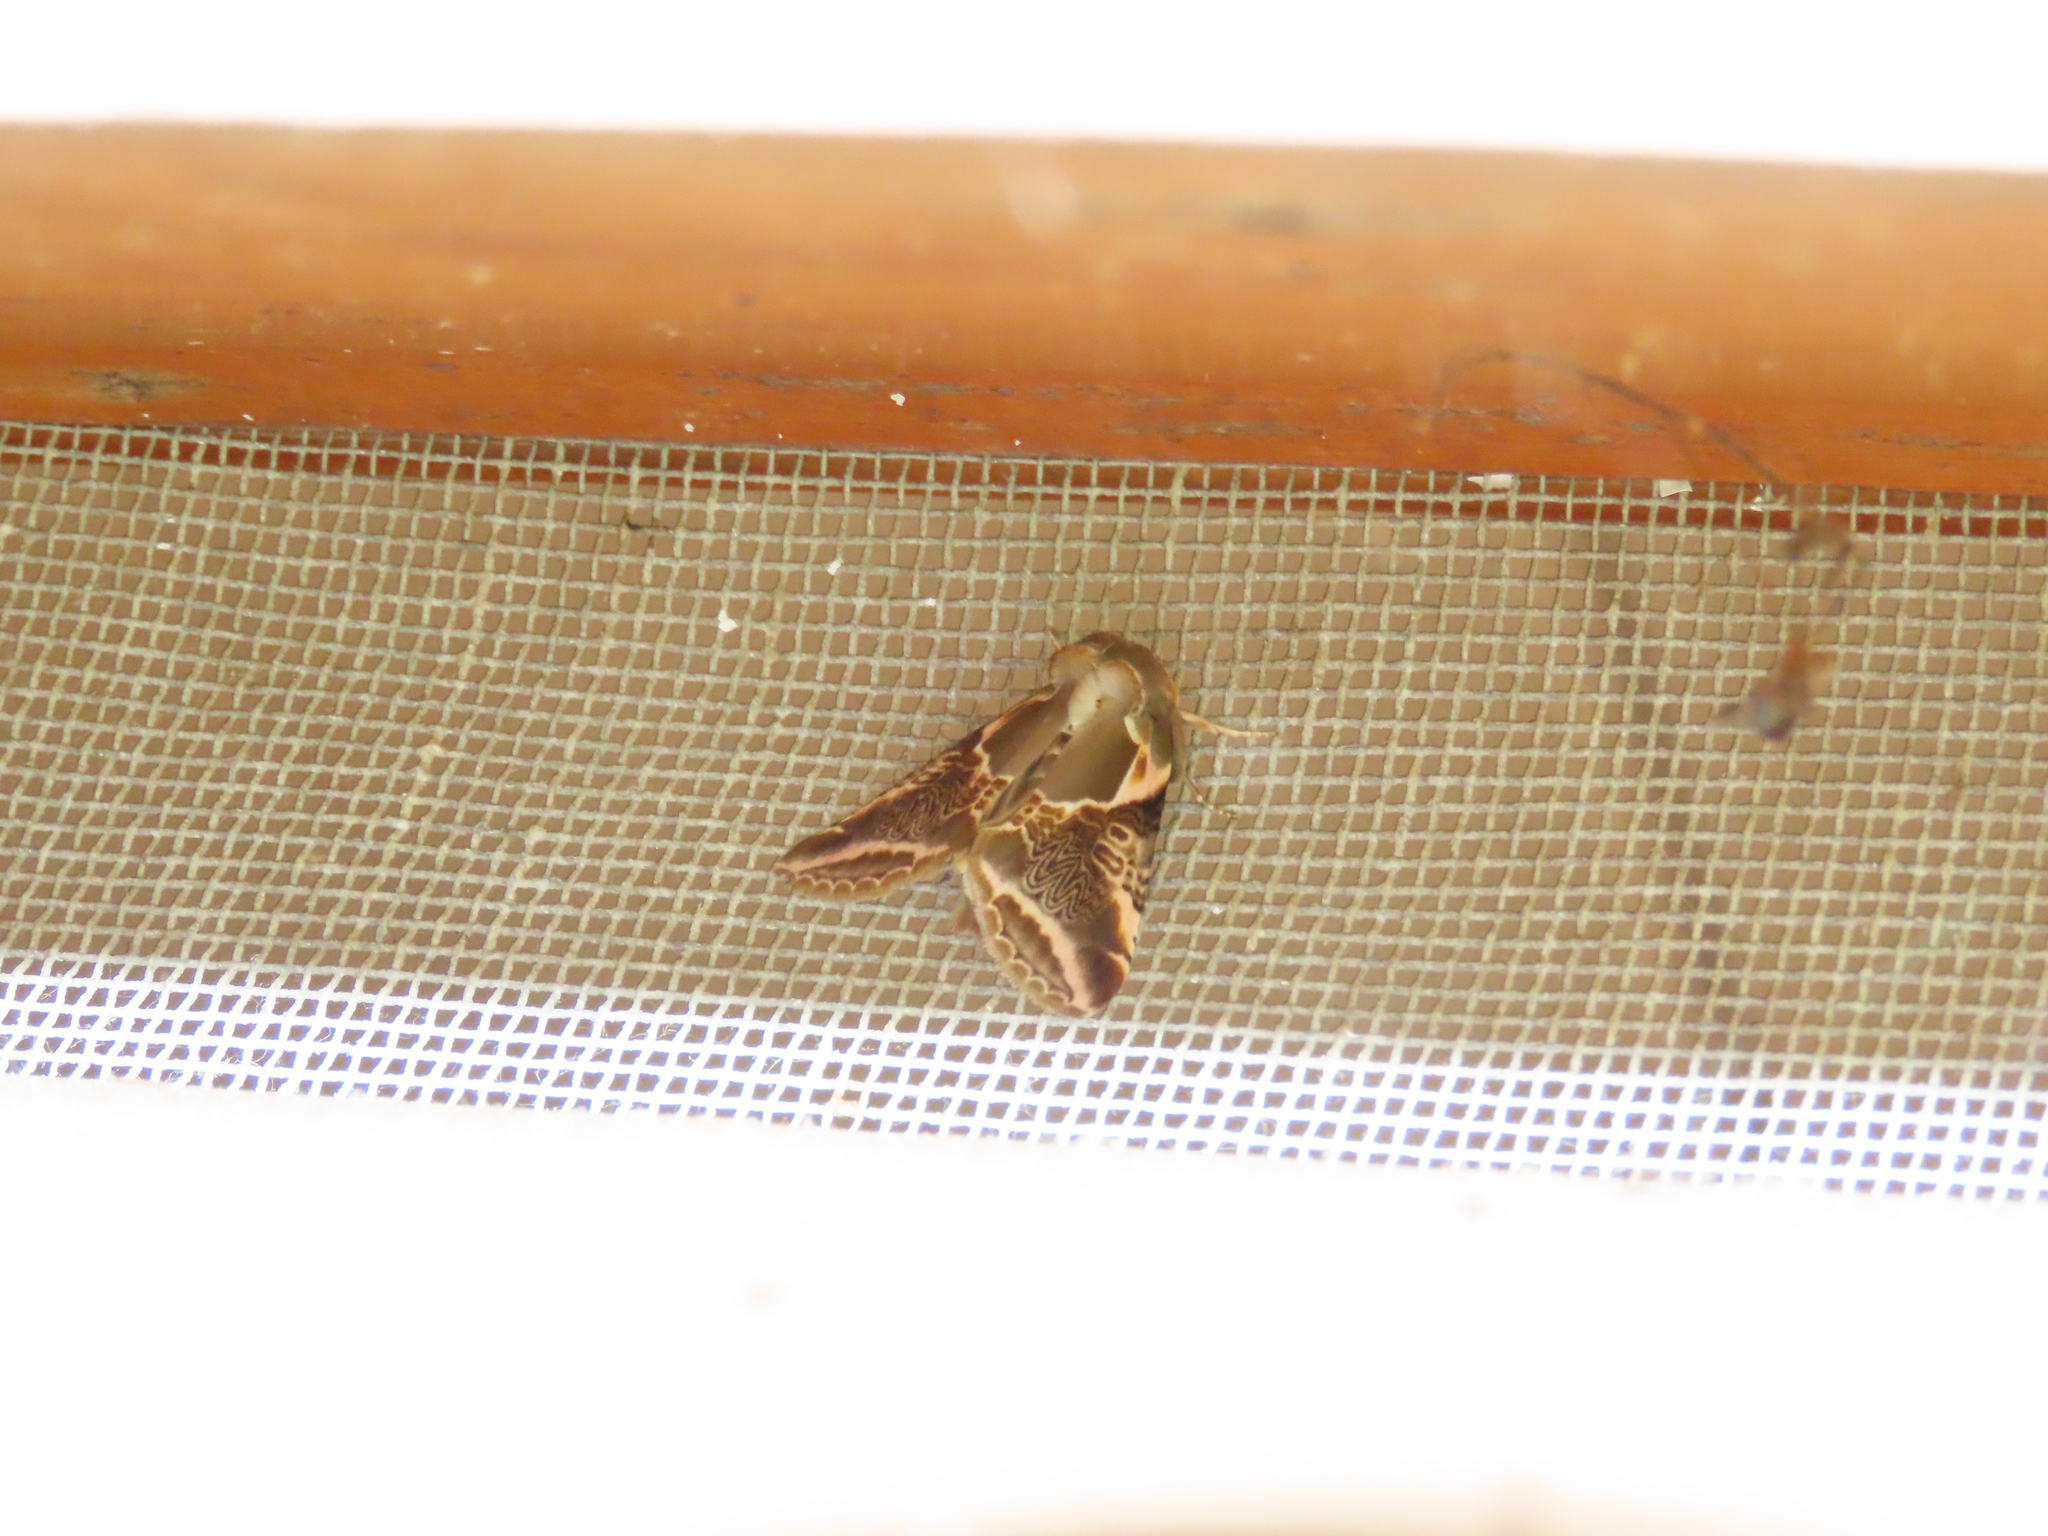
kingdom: Animalia
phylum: Arthropoda
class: Insecta
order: Lepidoptera
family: Drepanidae
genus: Habrosyne
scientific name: Habrosyne scripta
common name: Lettered habrosyne moth
